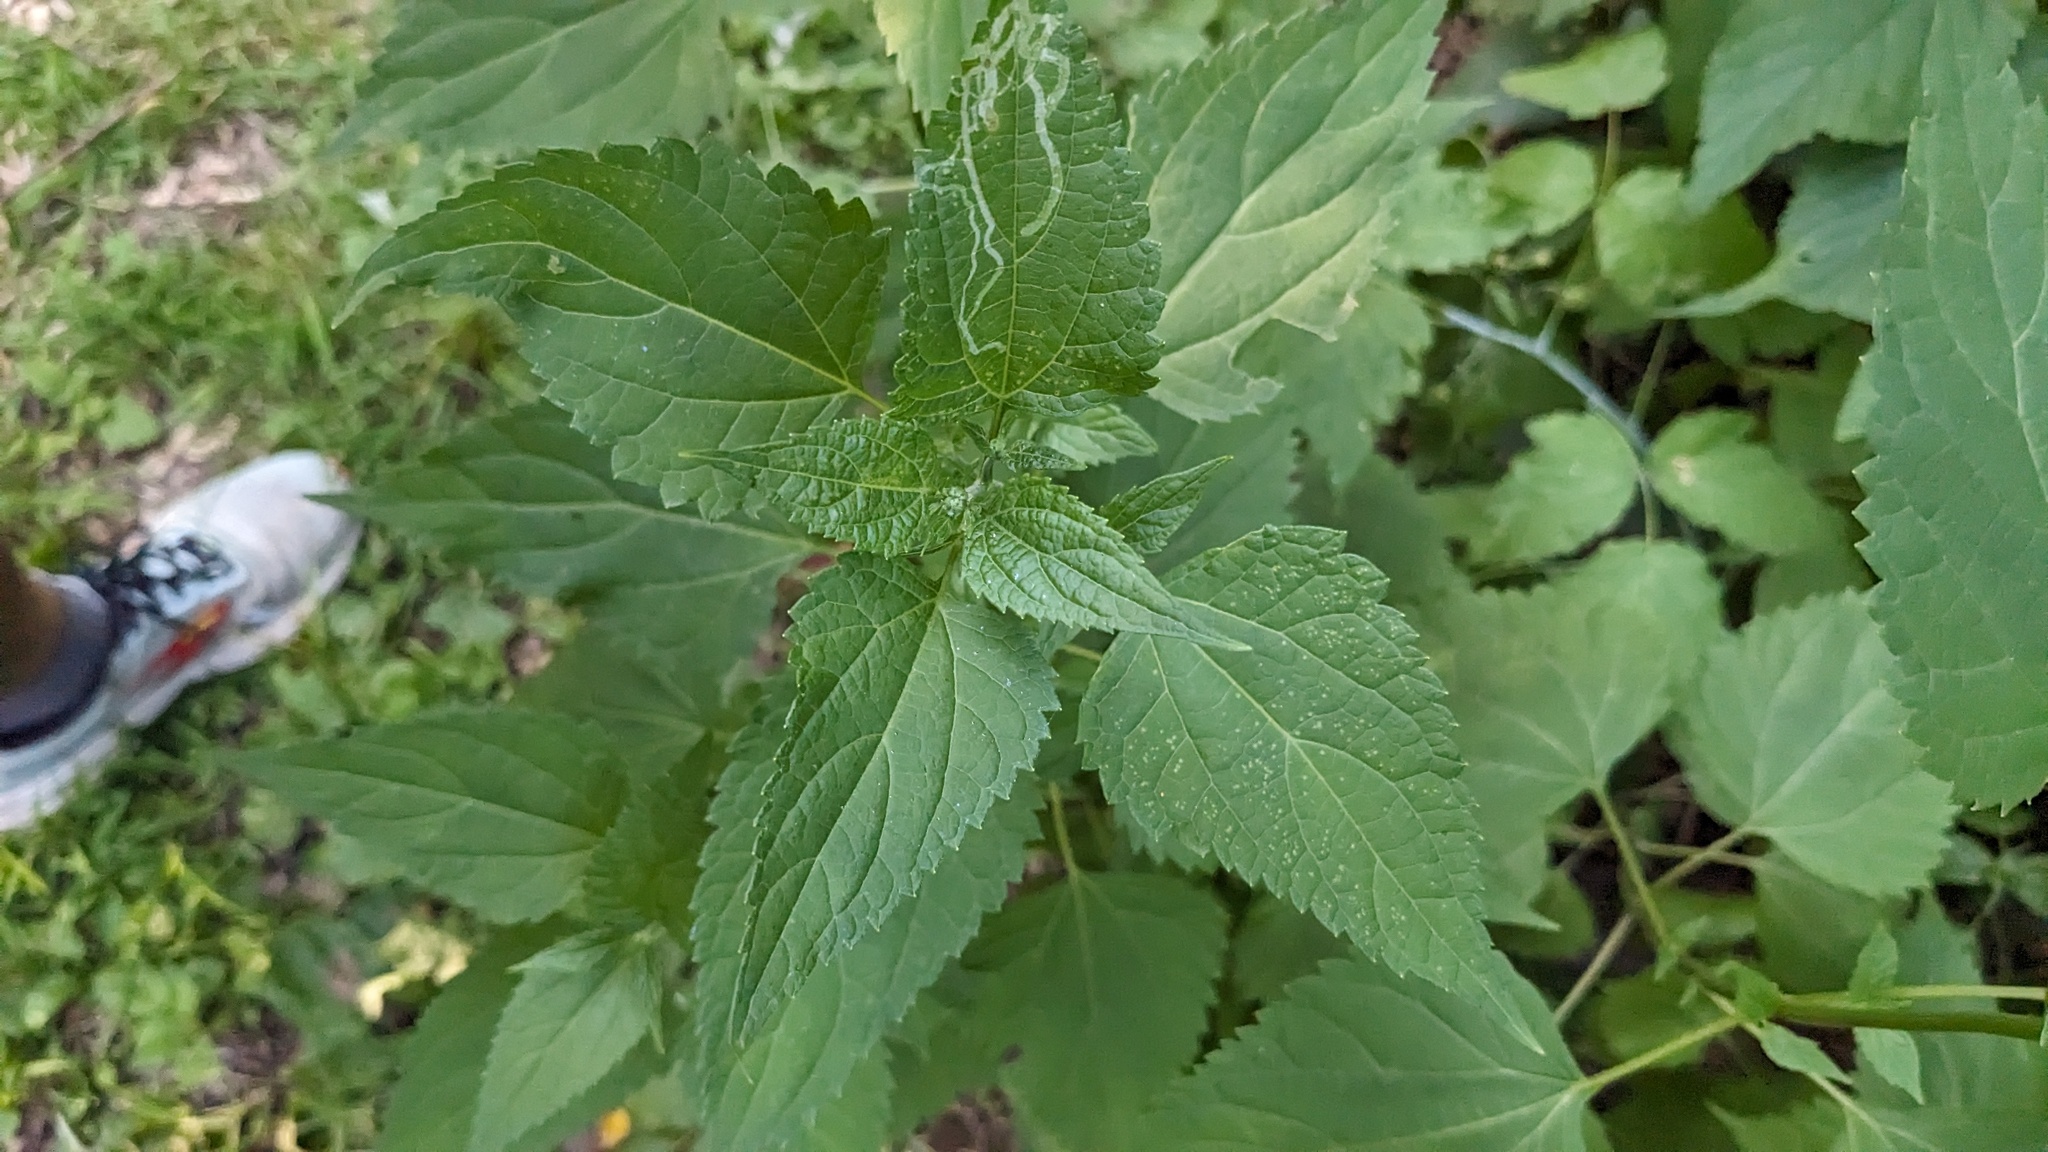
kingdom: Plantae
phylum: Tracheophyta
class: Magnoliopsida
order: Asterales
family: Asteraceae
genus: Ageratina
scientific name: Ageratina altissima
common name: White snakeroot
